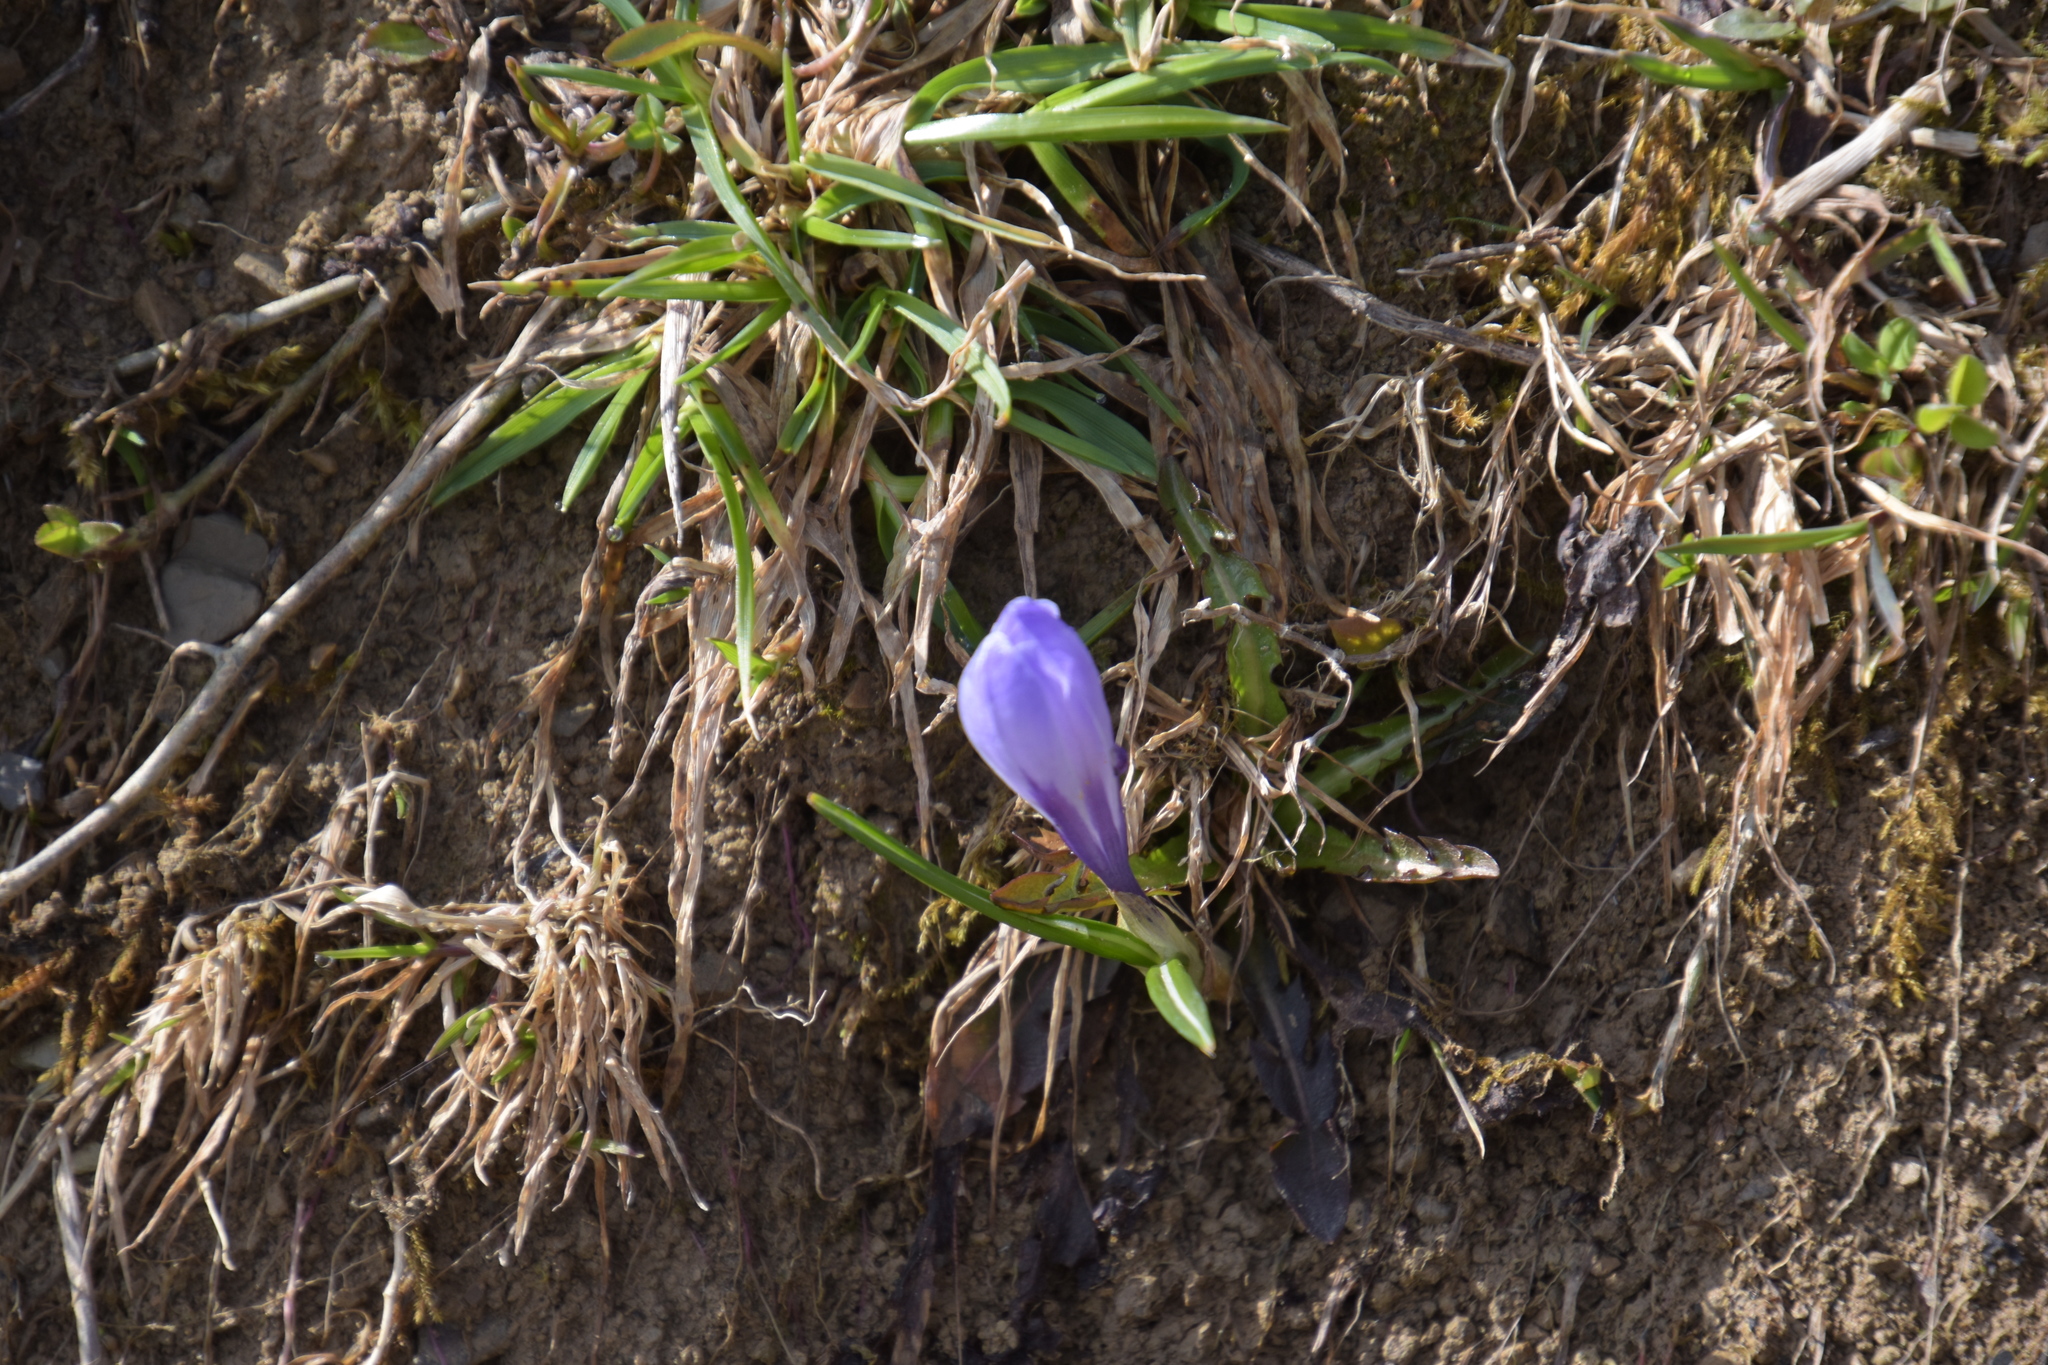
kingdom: Plantae
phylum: Tracheophyta
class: Liliopsida
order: Asparagales
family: Iridaceae
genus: Crocus
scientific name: Crocus vernus
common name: Spring crocus
